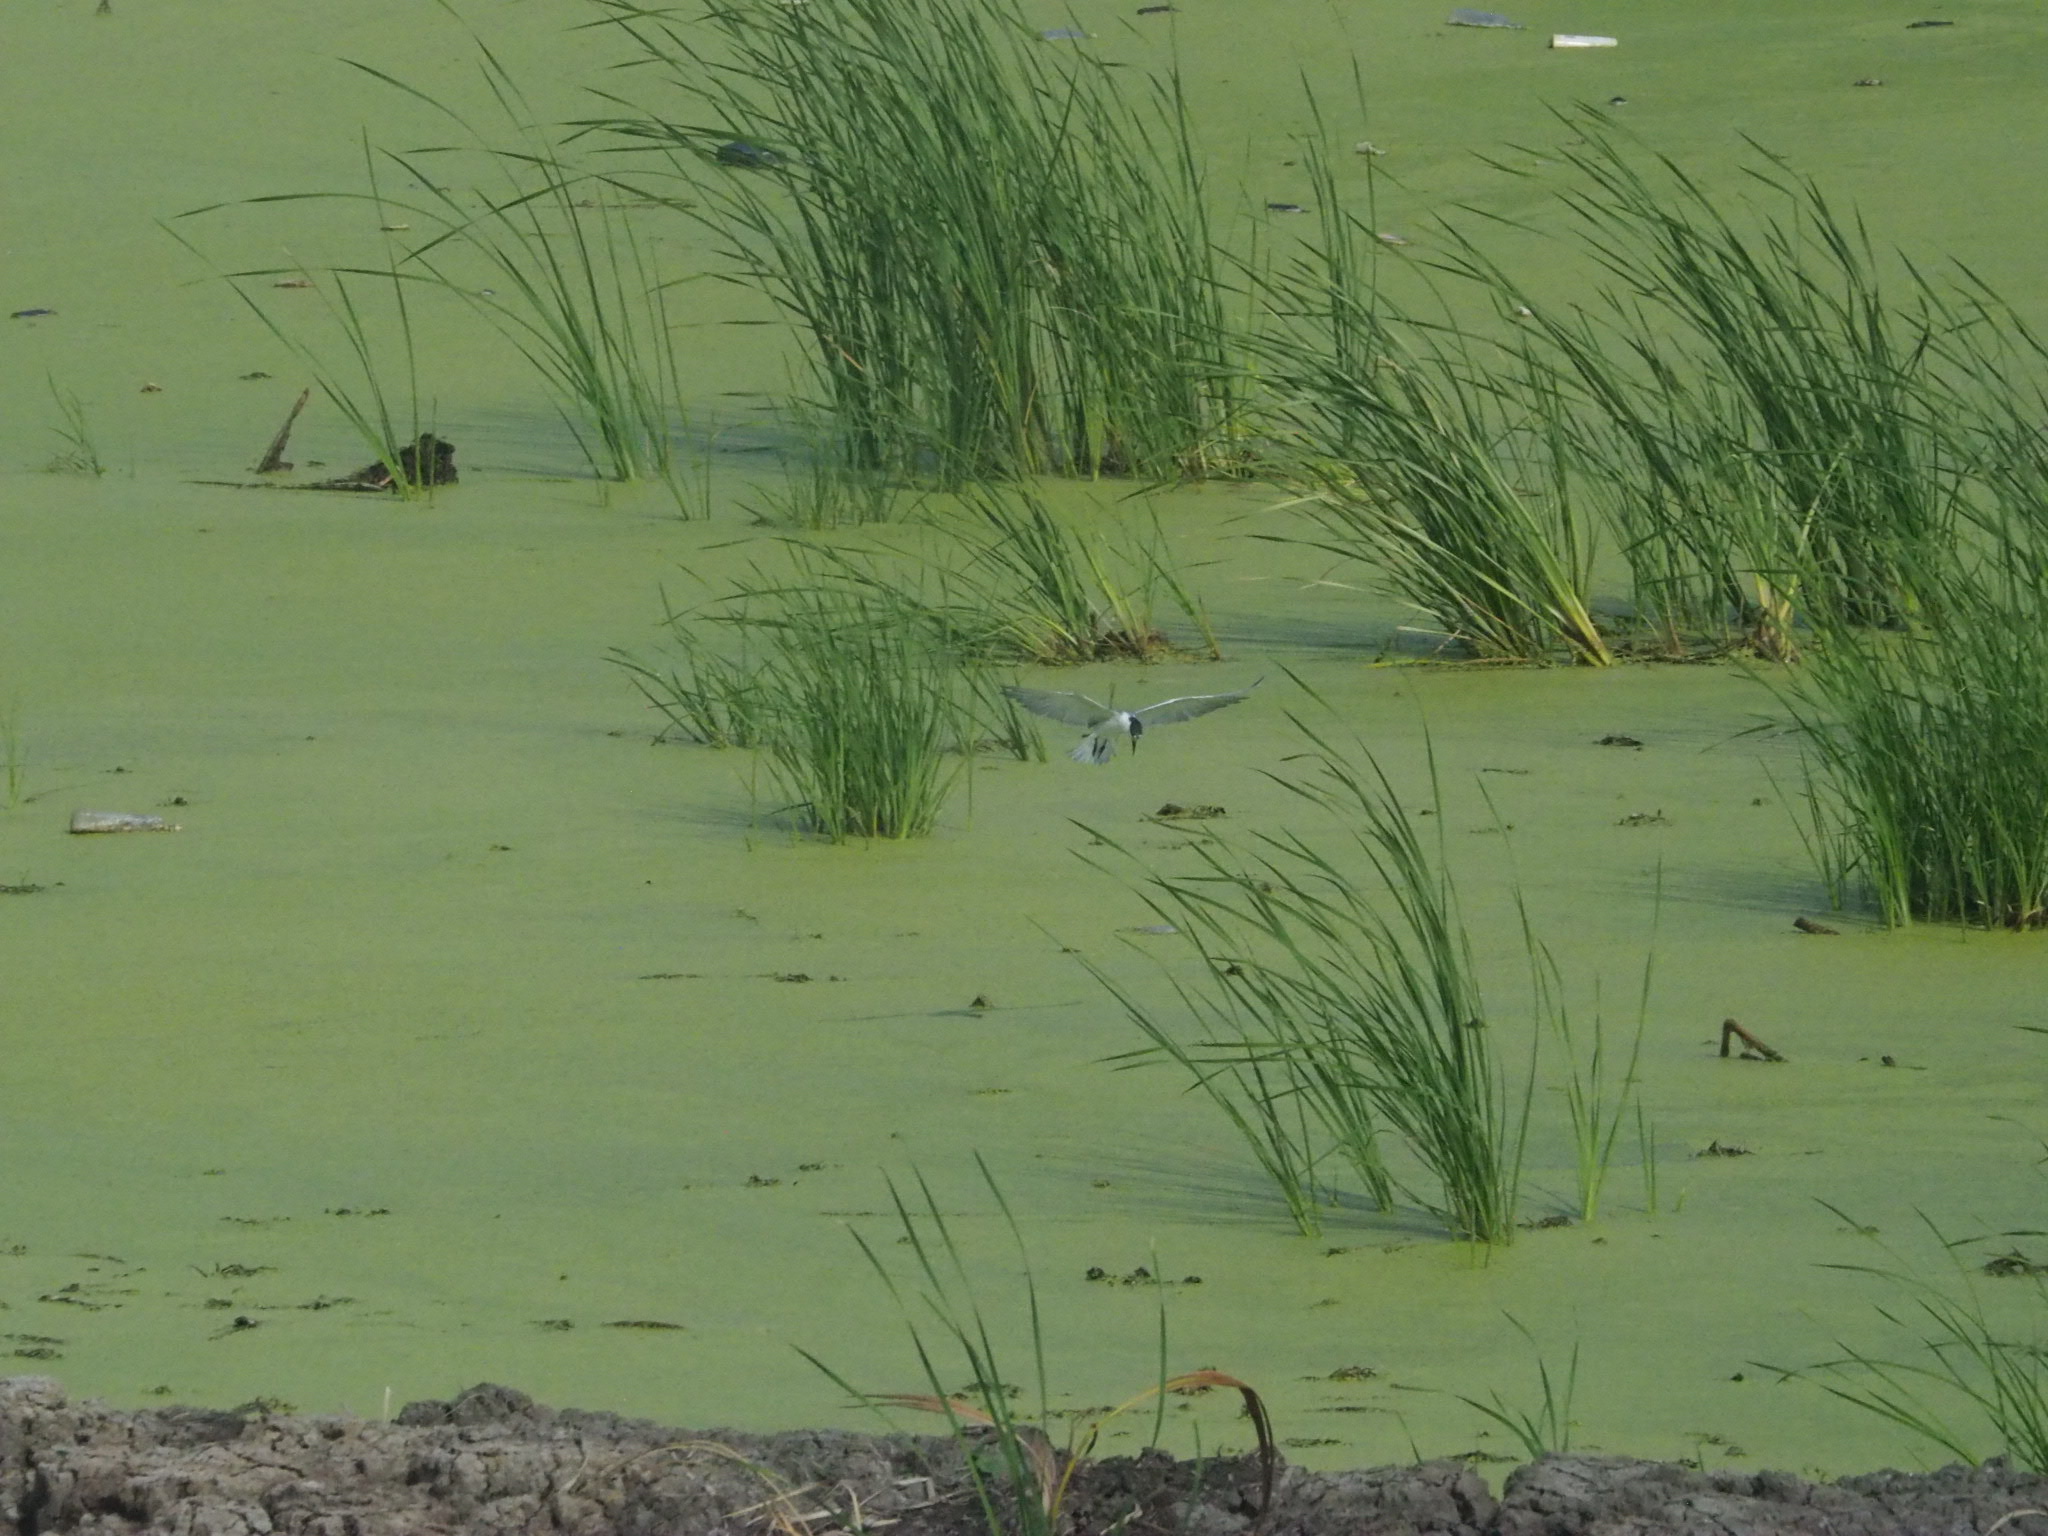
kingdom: Animalia
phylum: Chordata
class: Aves
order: Charadriiformes
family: Laridae
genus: Chlidonias
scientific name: Chlidonias hybrida
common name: Whiskered tern
